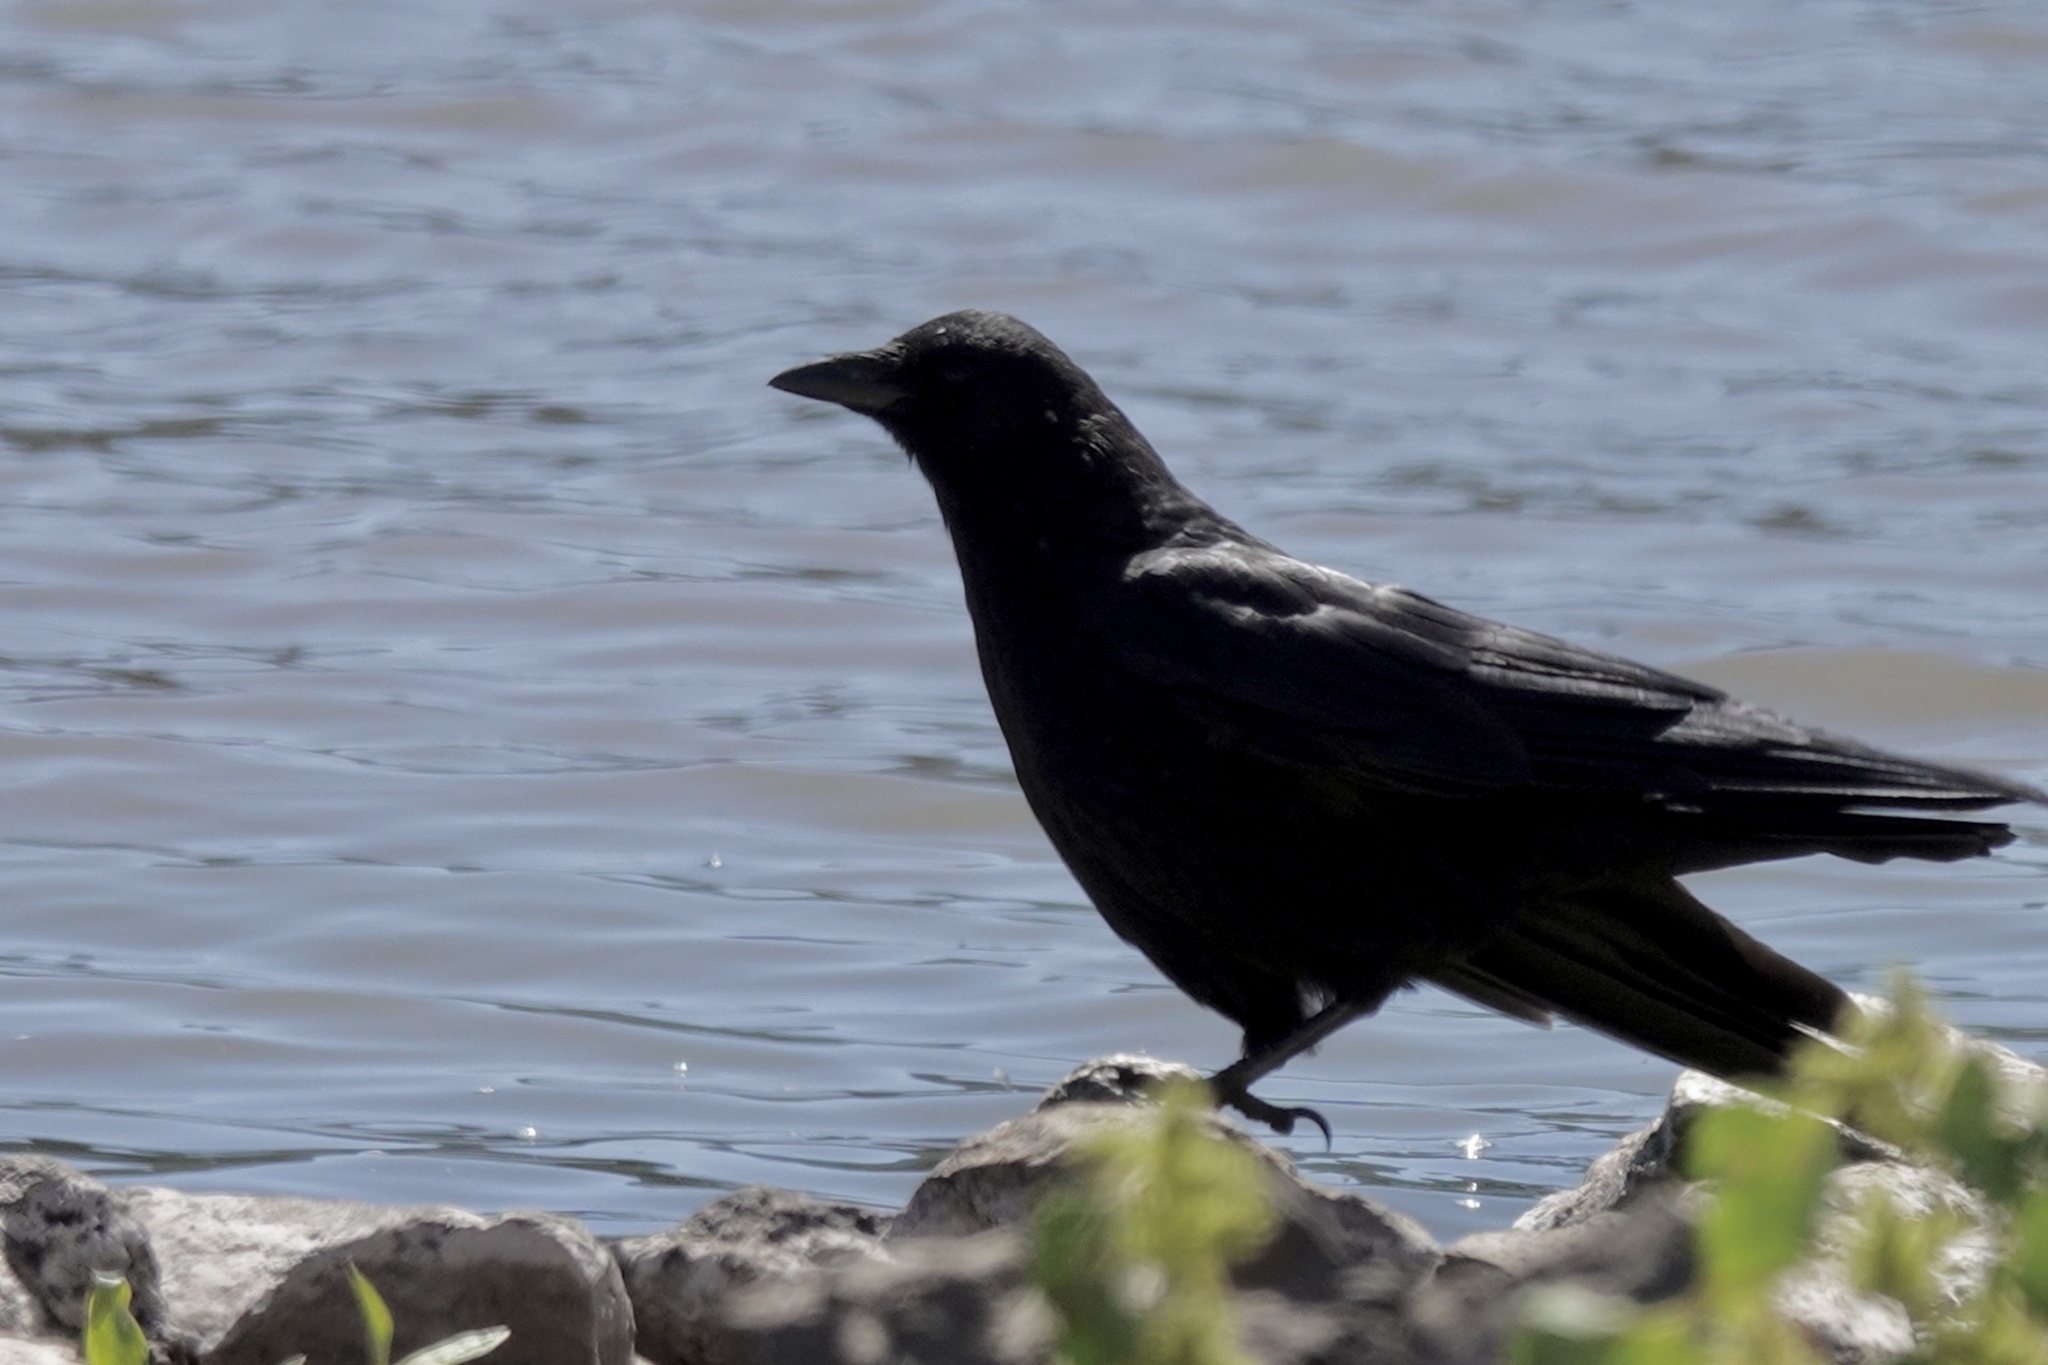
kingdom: Animalia
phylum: Chordata
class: Aves
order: Passeriformes
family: Corvidae
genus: Corvus
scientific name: Corvus brachyrhynchos
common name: American crow
